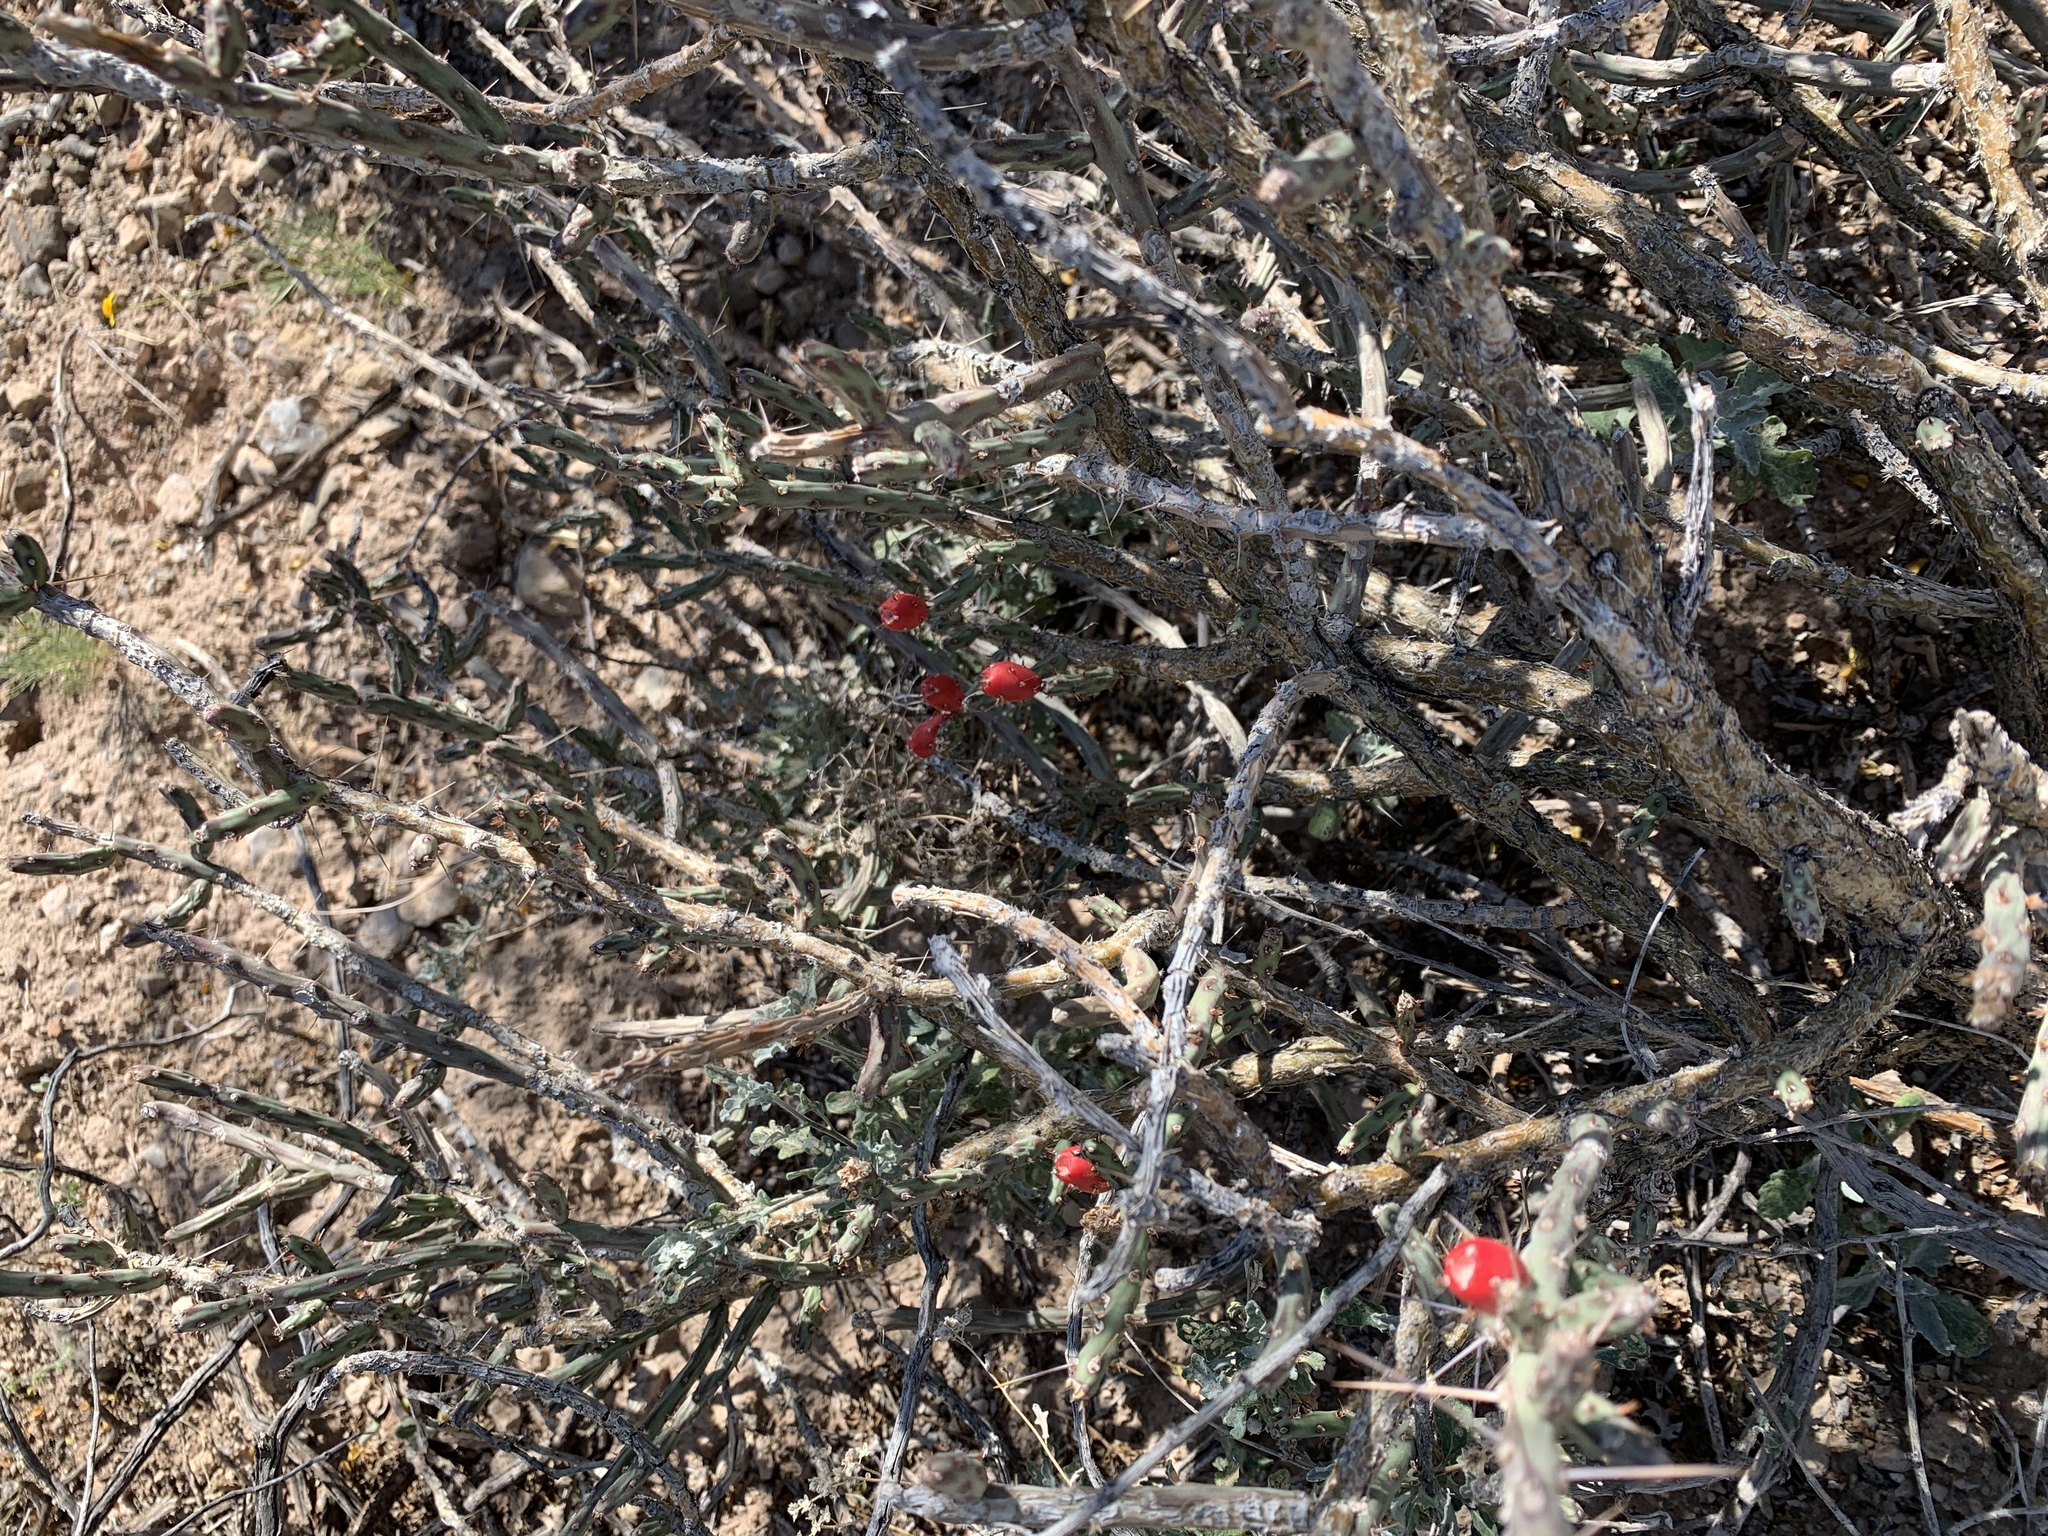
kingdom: Plantae
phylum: Tracheophyta
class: Magnoliopsida
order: Caryophyllales
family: Cactaceae
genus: Cylindropuntia
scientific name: Cylindropuntia leptocaulis
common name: Christmas cactus
